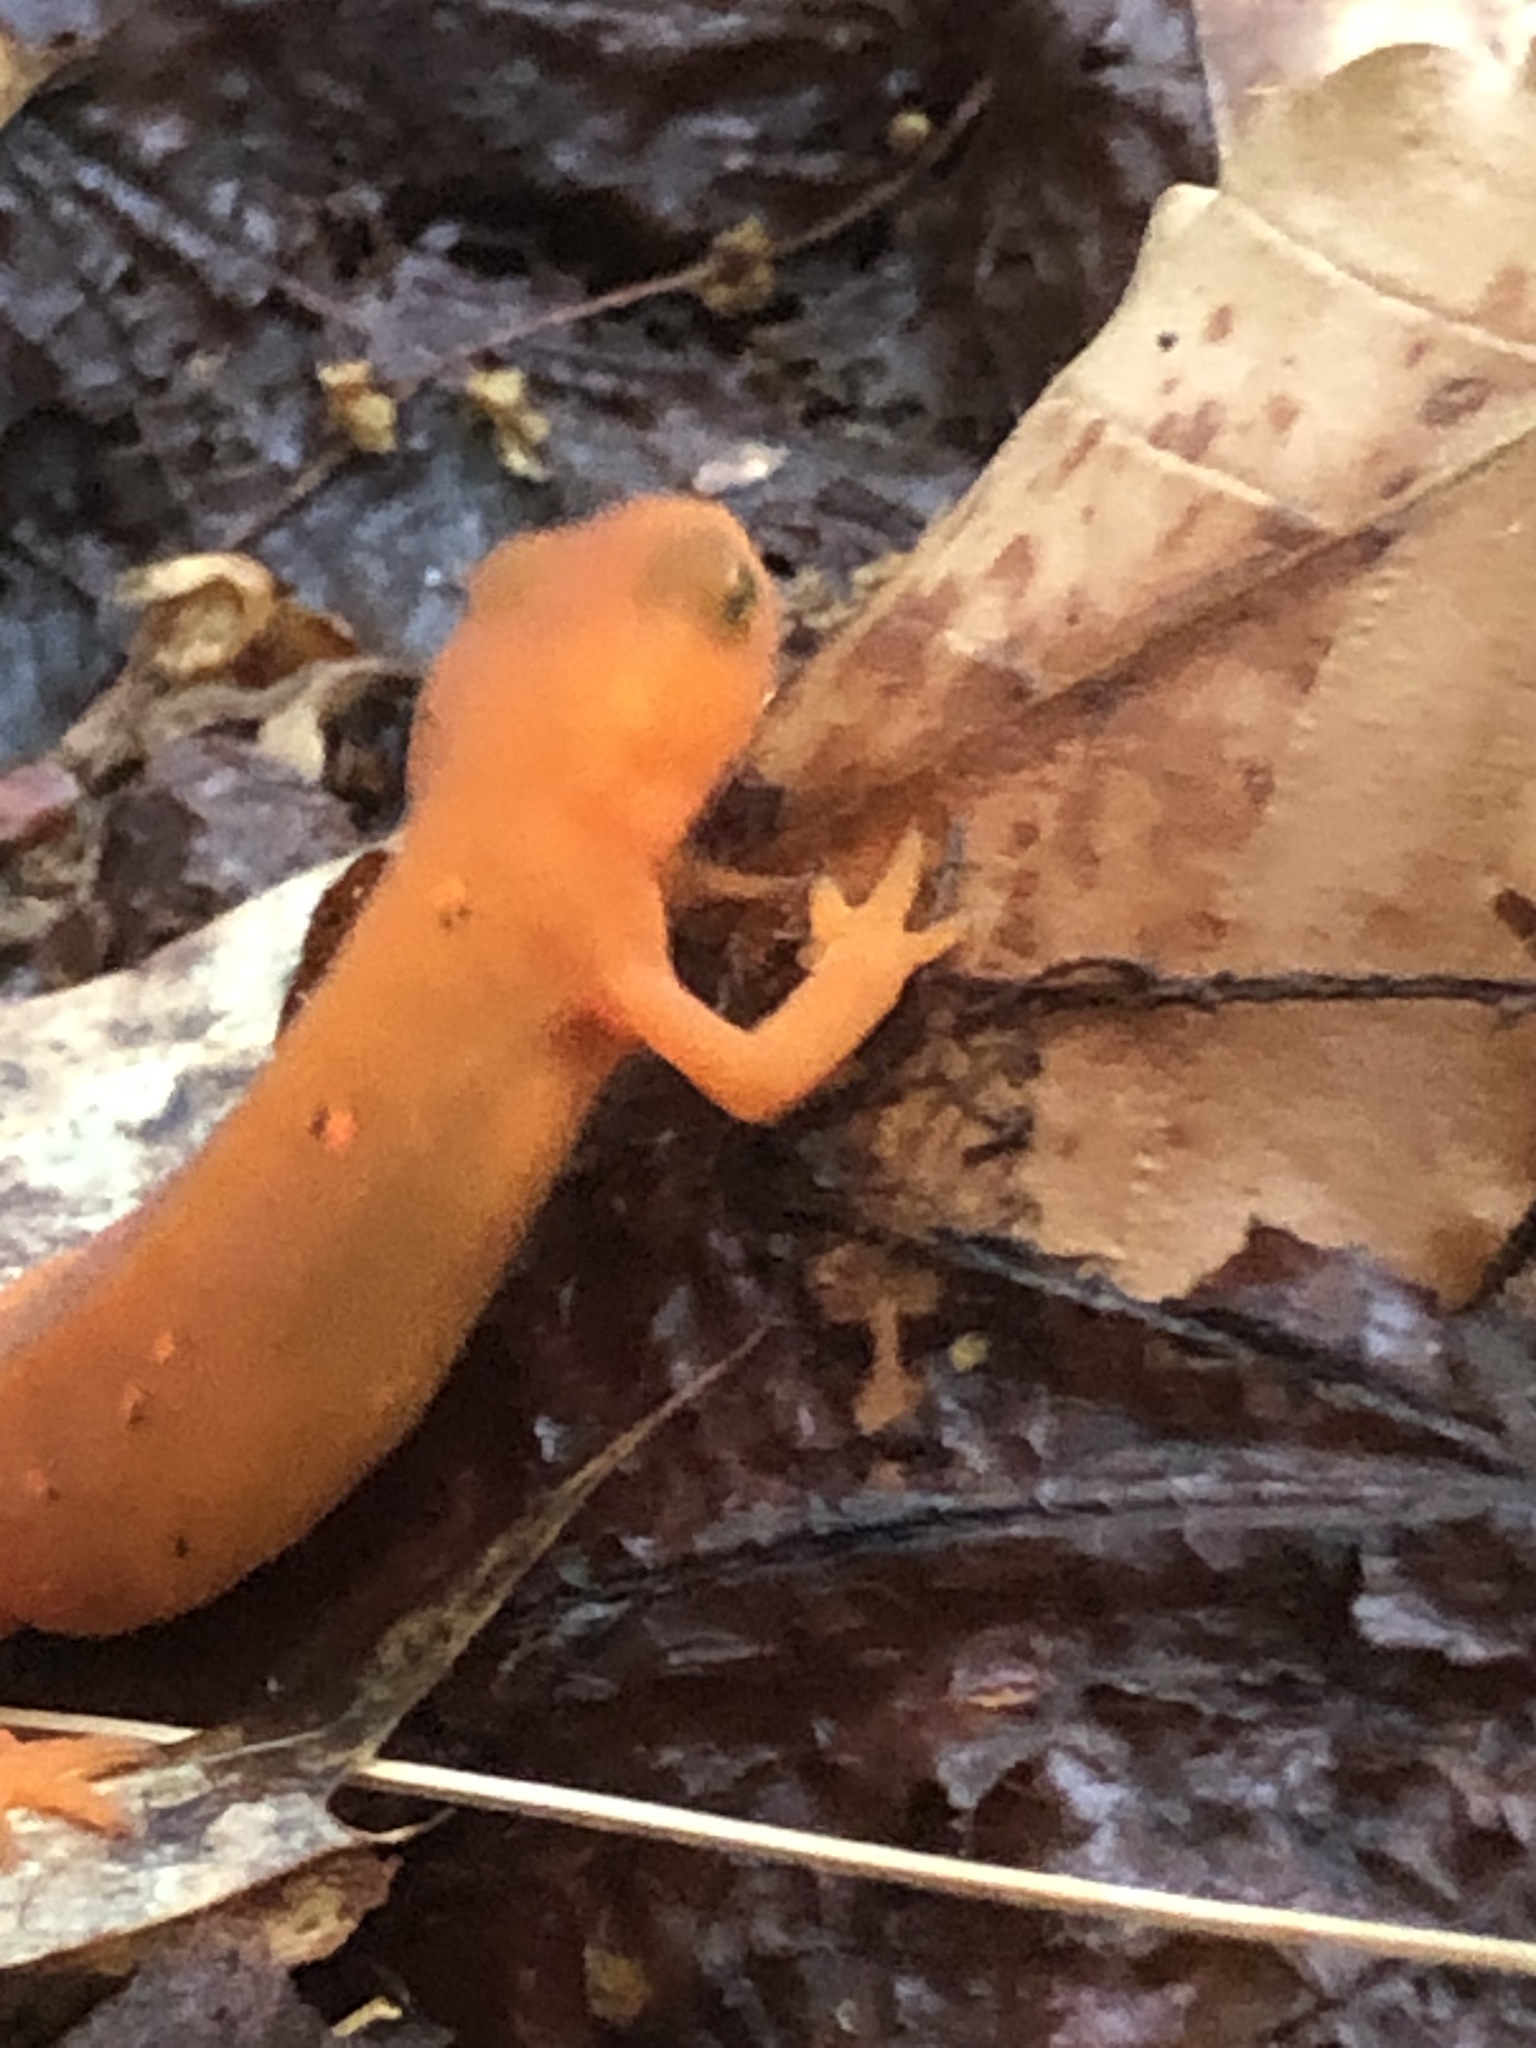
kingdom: Animalia
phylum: Chordata
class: Amphibia
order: Caudata
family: Salamandridae
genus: Notophthalmus
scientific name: Notophthalmus viridescens
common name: Eastern newt
